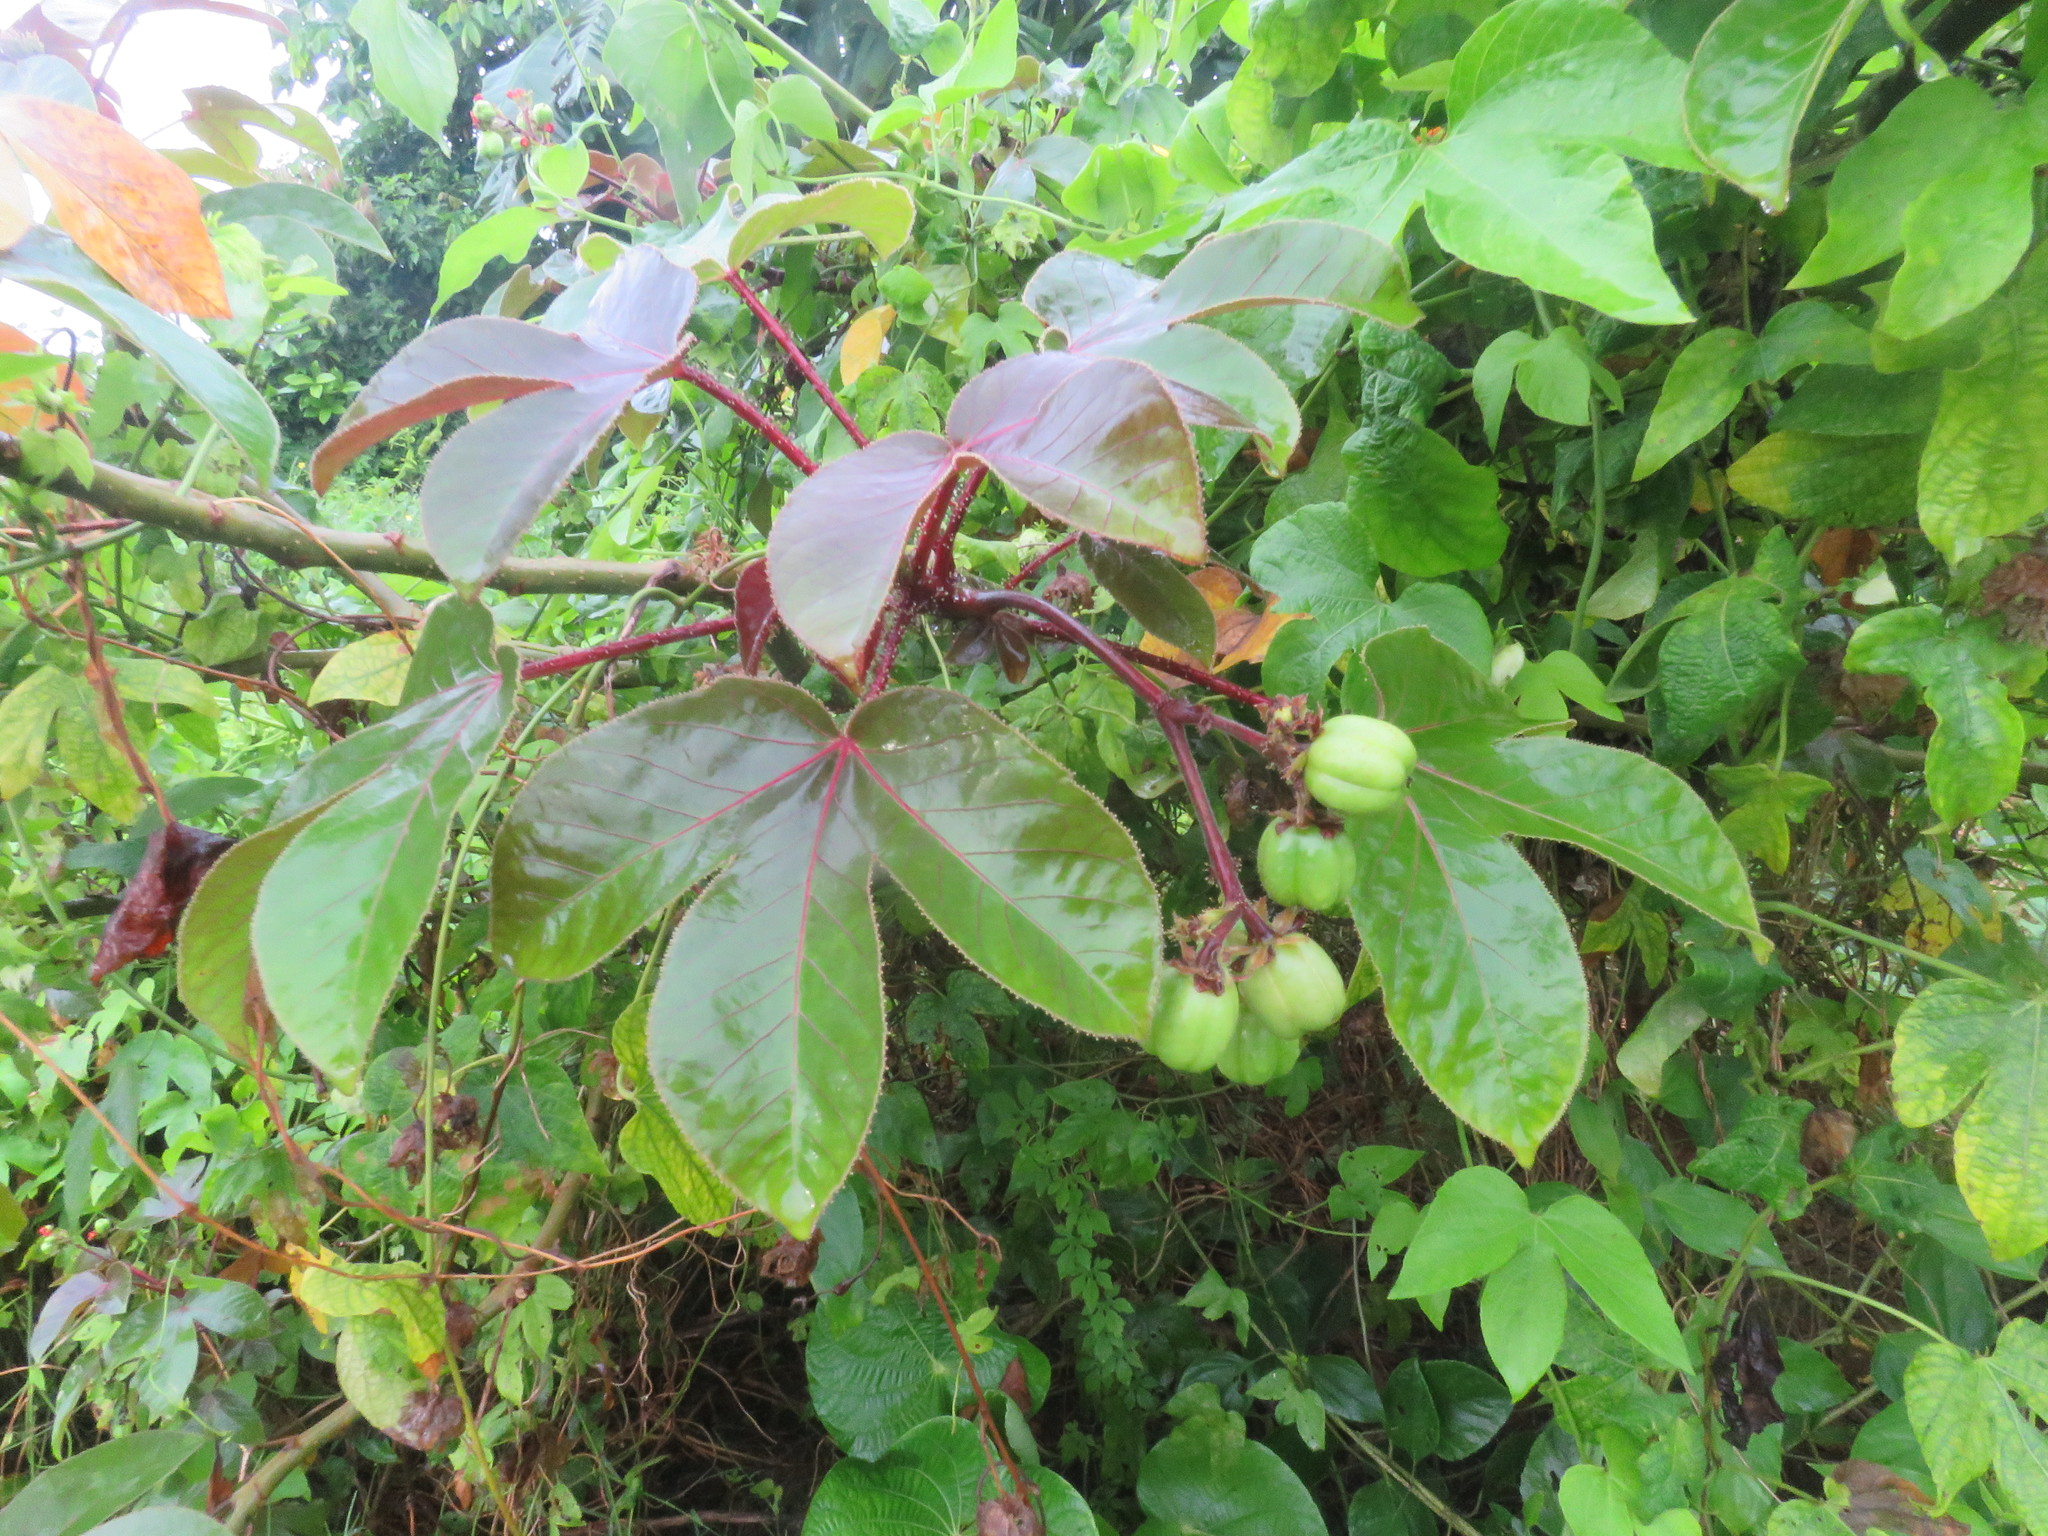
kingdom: Plantae
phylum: Tracheophyta
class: Magnoliopsida
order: Malpighiales
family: Euphorbiaceae
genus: Jatropha
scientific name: Jatropha gossypiifolia
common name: Bellyache bush
